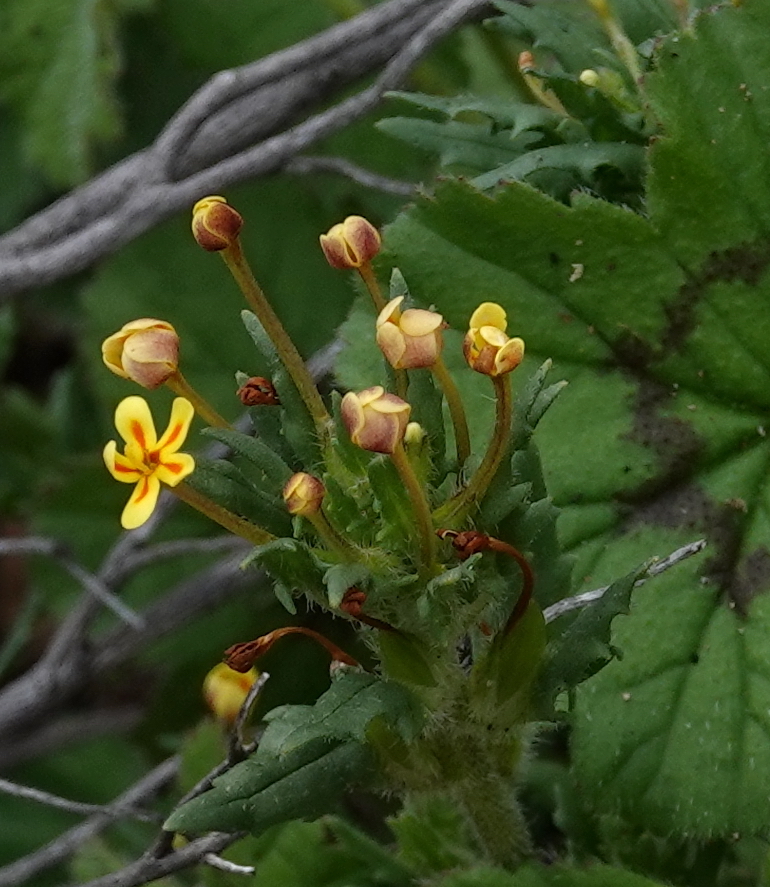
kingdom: Plantae
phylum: Tracheophyta
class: Magnoliopsida
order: Lamiales
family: Scrophulariaceae
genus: Zaluzianskya
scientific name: Zaluzianskya divaricata
